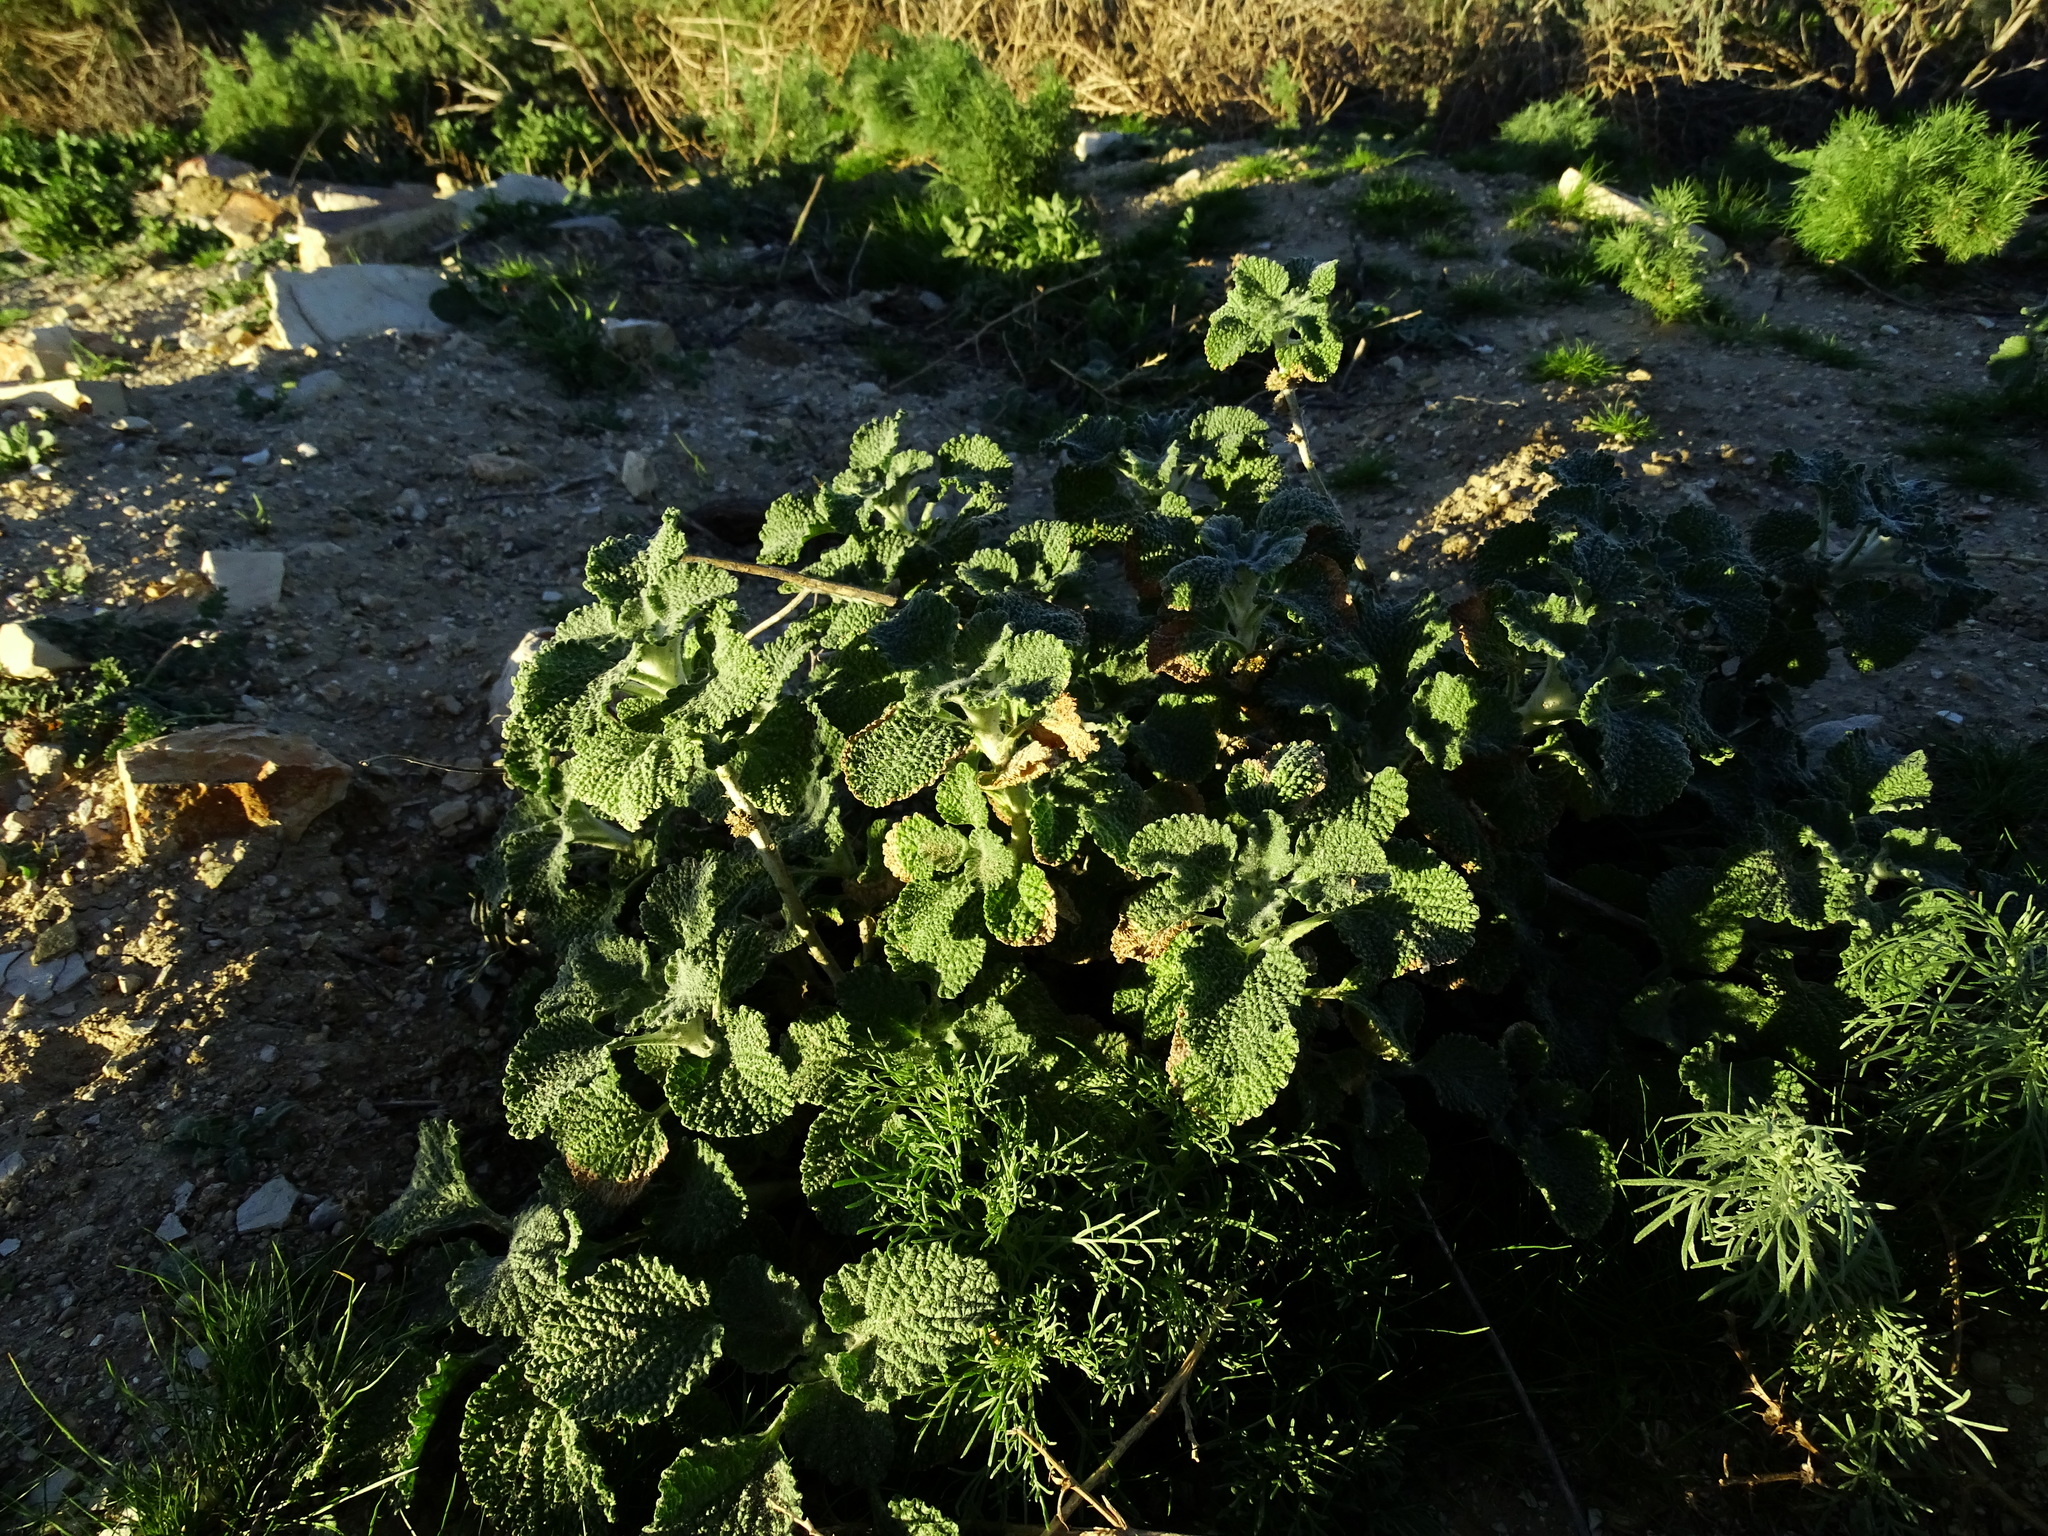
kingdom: Plantae
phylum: Tracheophyta
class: Magnoliopsida
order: Lamiales
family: Lamiaceae
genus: Marrubium
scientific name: Marrubium vulgare
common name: Horehound
